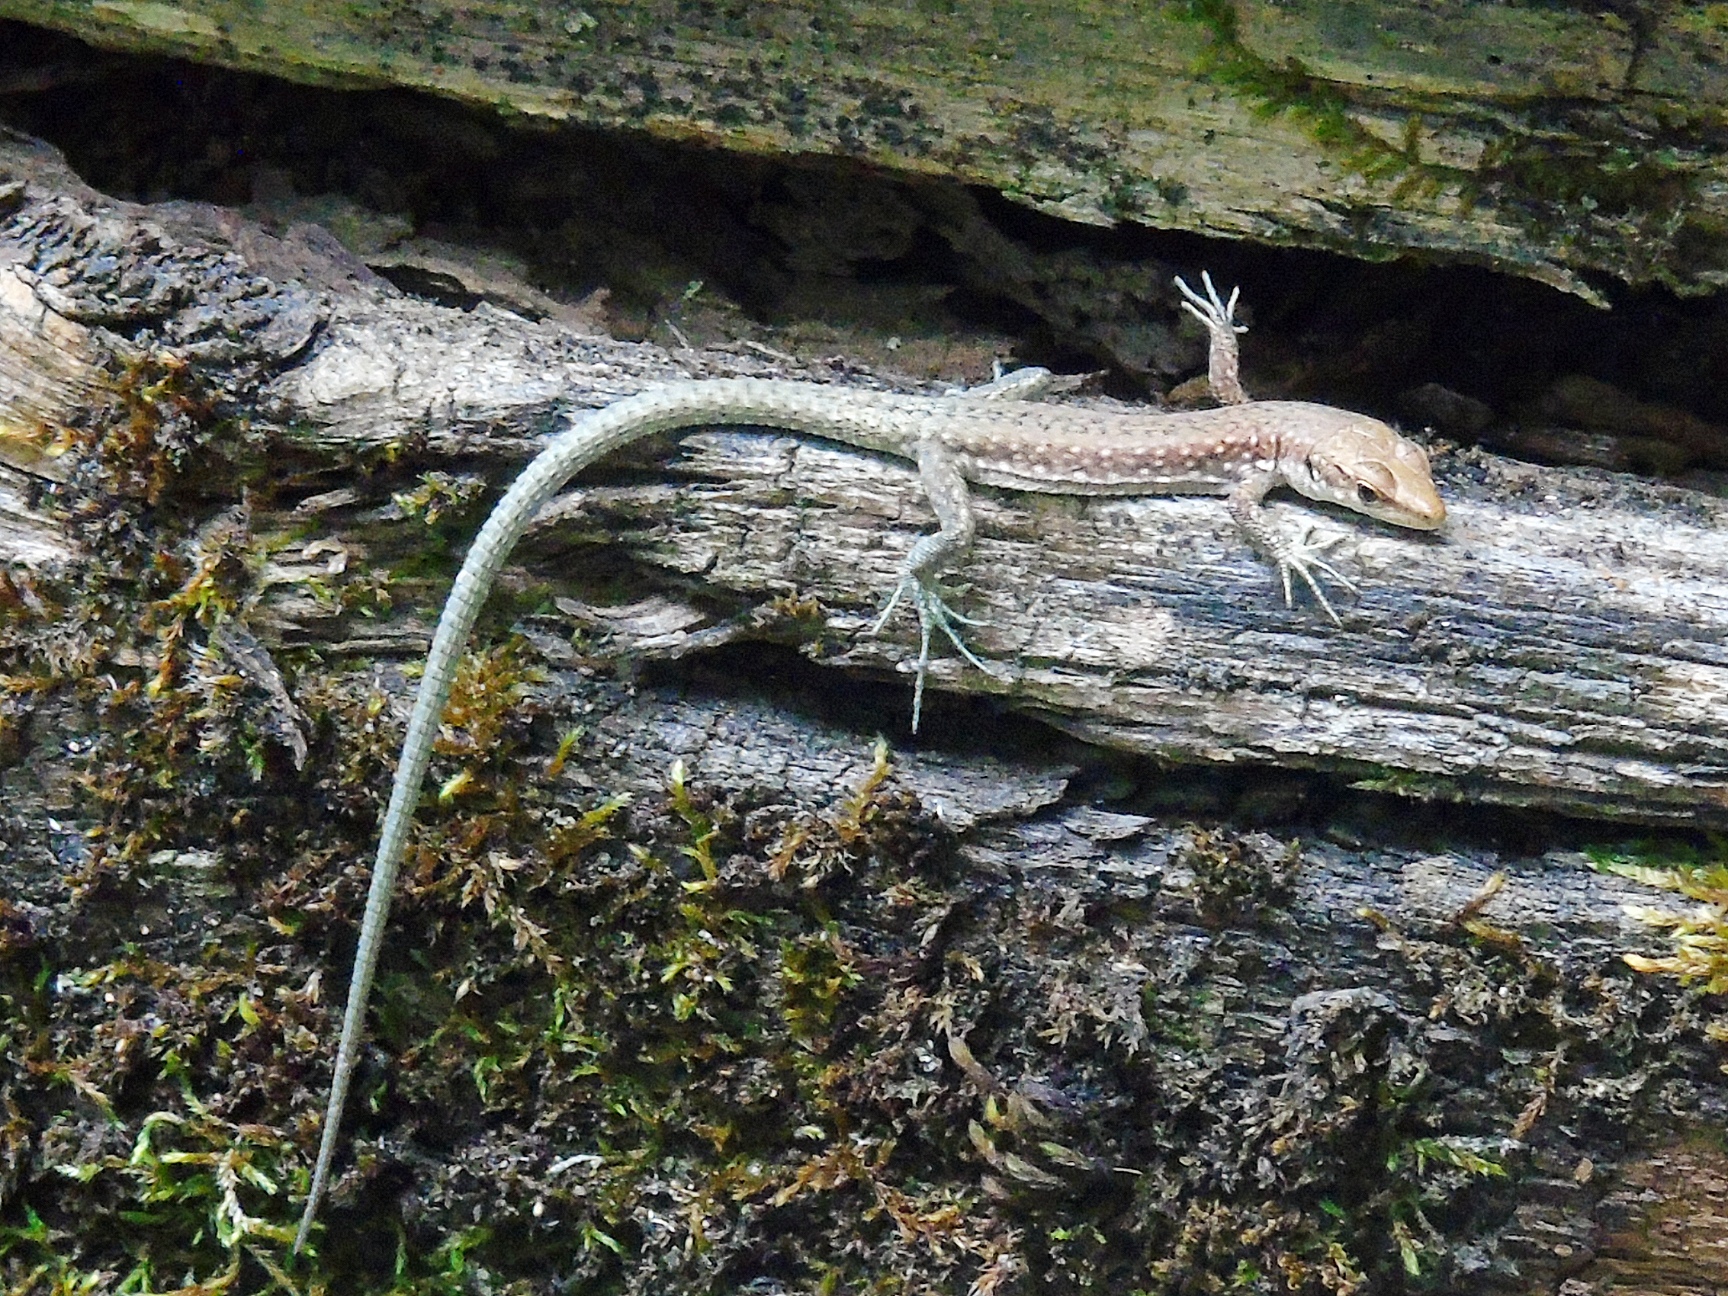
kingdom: Animalia
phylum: Chordata
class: Squamata
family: Lacertidae
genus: Darevskia
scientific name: Darevskia
